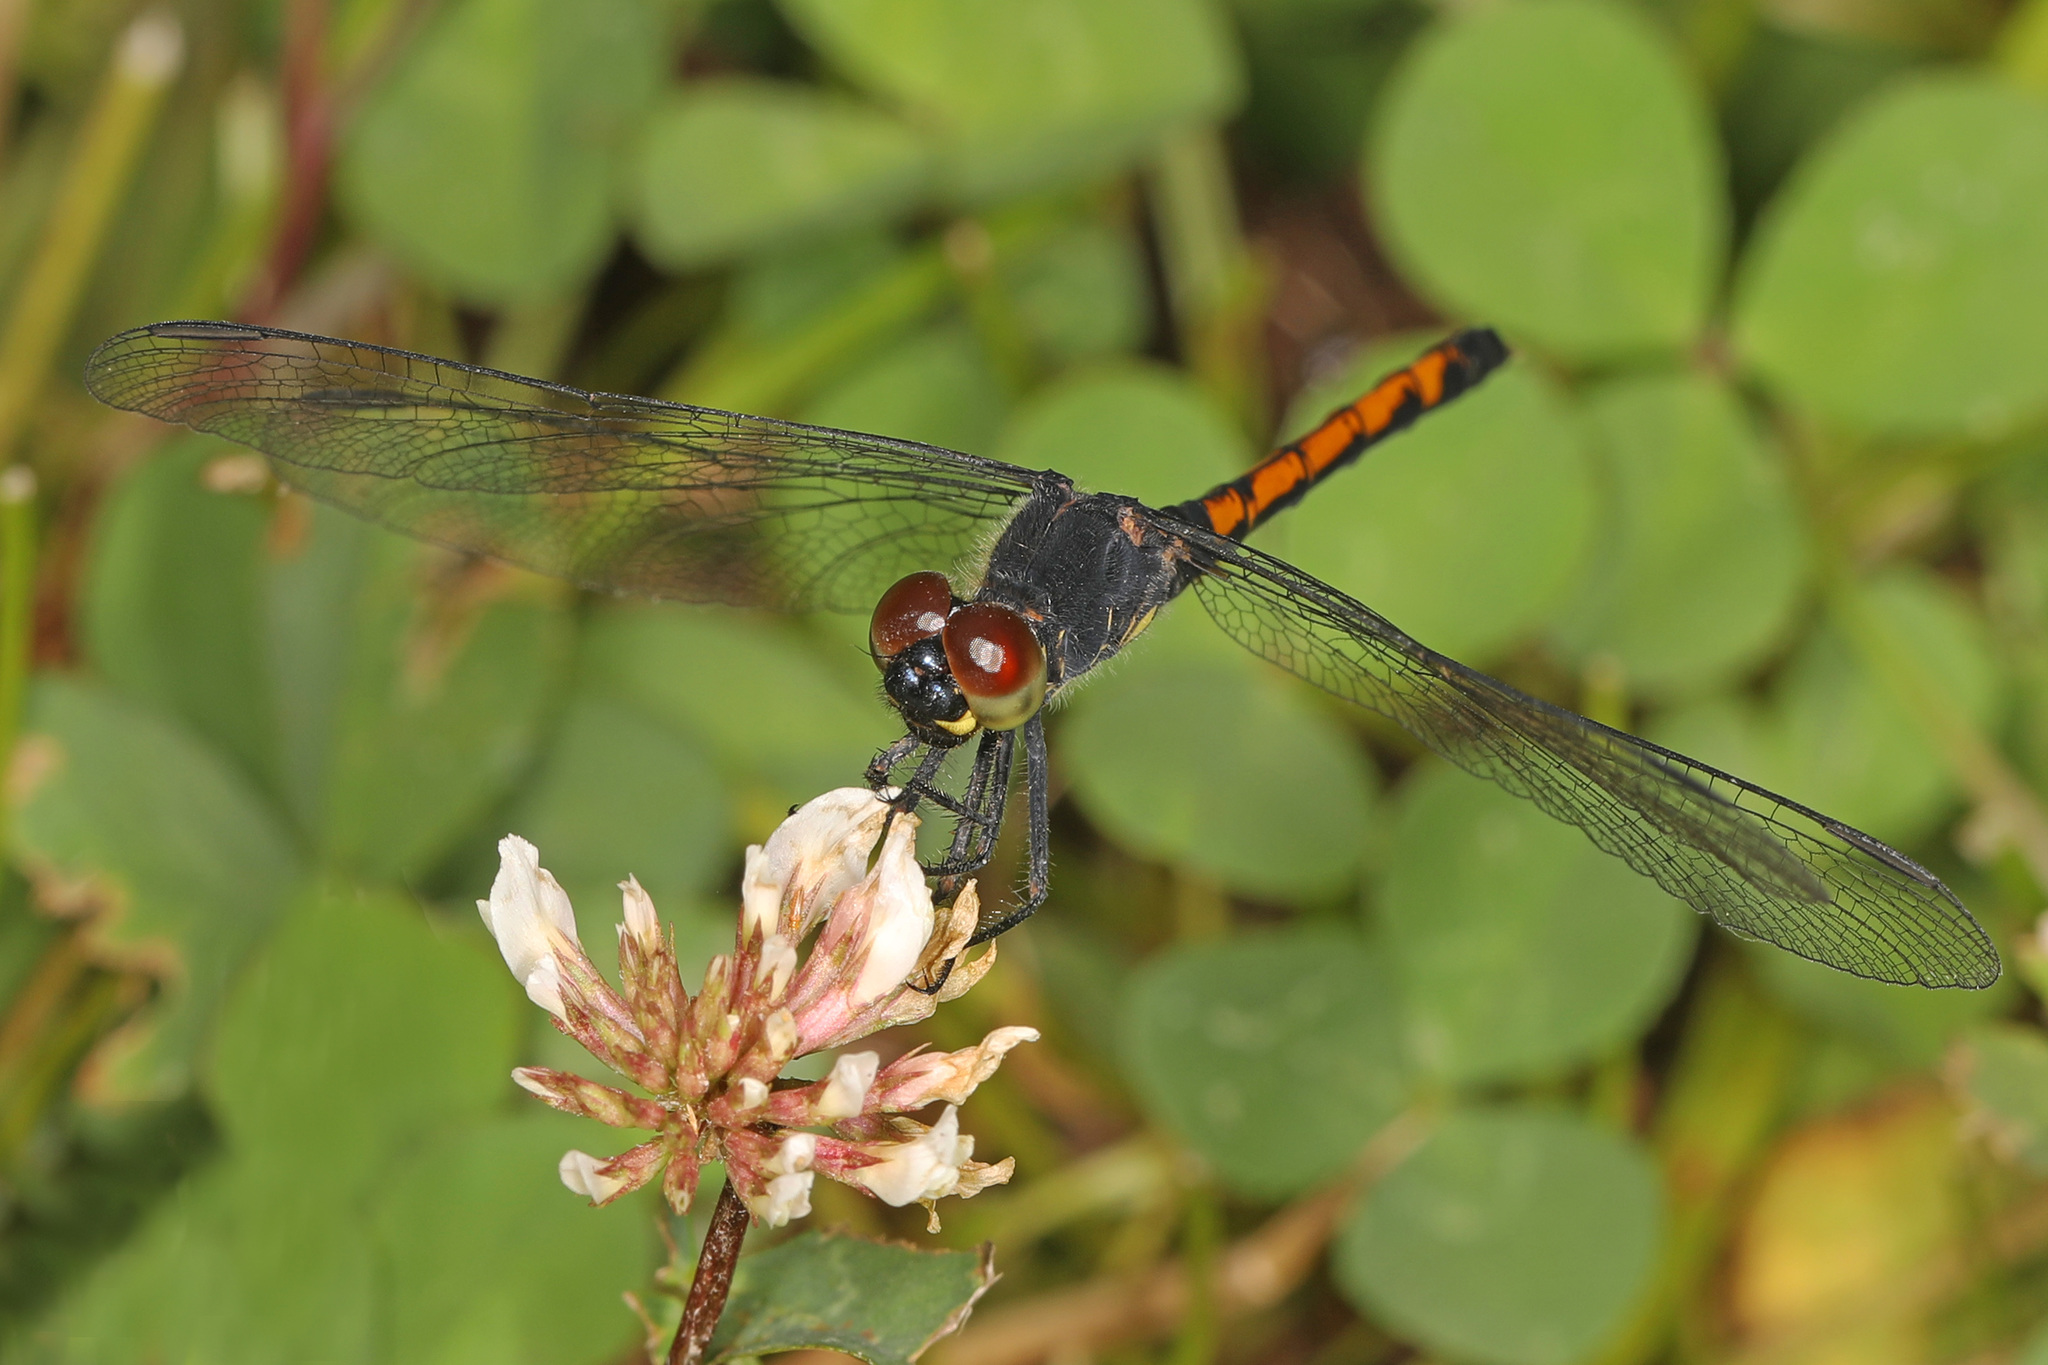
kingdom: Animalia
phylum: Arthropoda
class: Insecta
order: Odonata
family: Libellulidae
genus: Erythrodiplax
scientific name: Erythrodiplax berenice
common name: Seaside dragonlet
